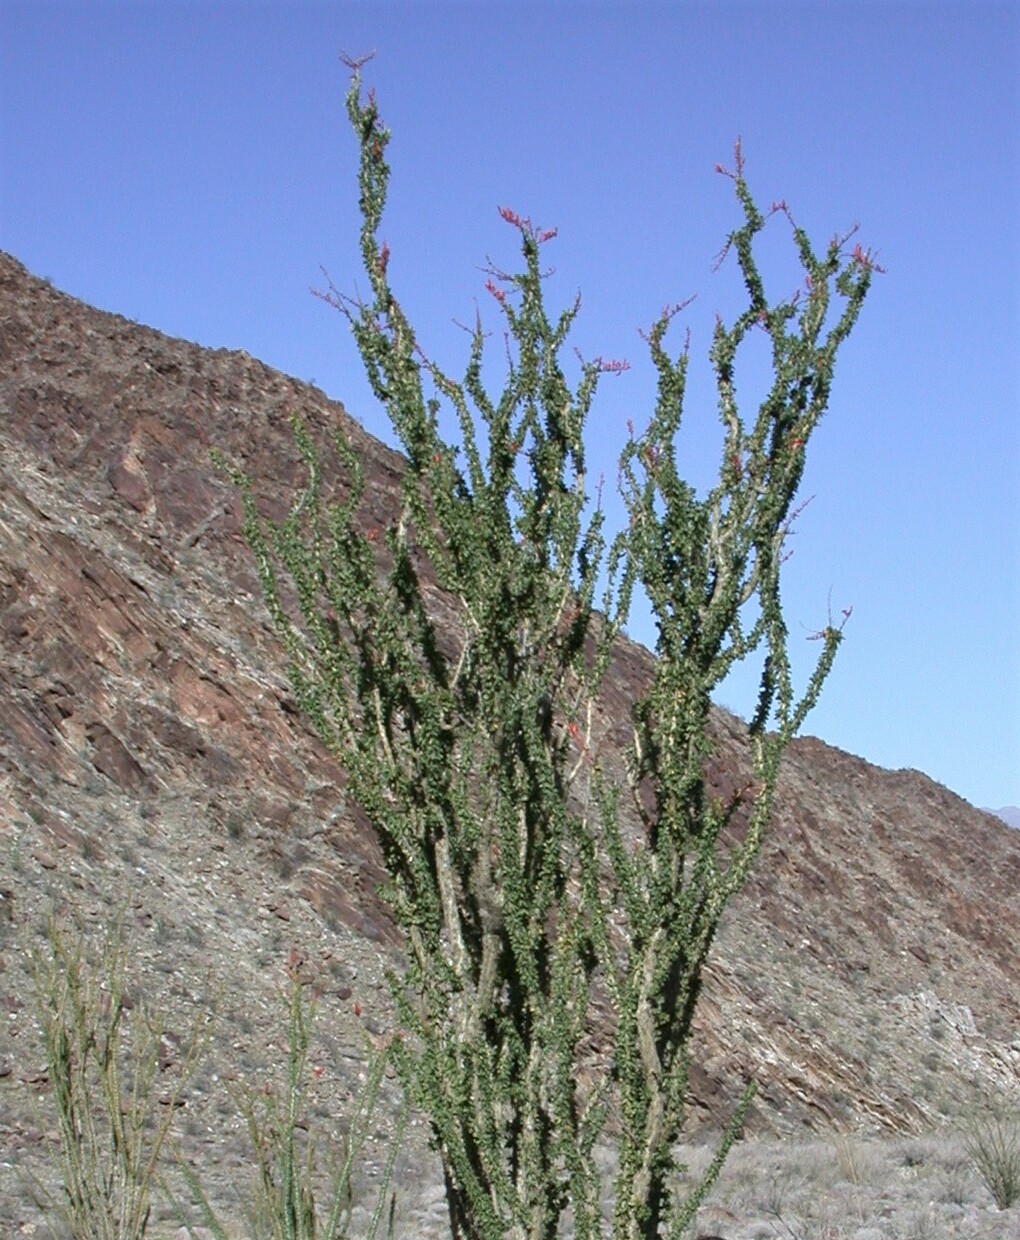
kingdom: Plantae
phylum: Tracheophyta
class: Magnoliopsida
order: Ericales
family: Fouquieriaceae
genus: Fouquieria
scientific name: Fouquieria splendens
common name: Vine-cactus
